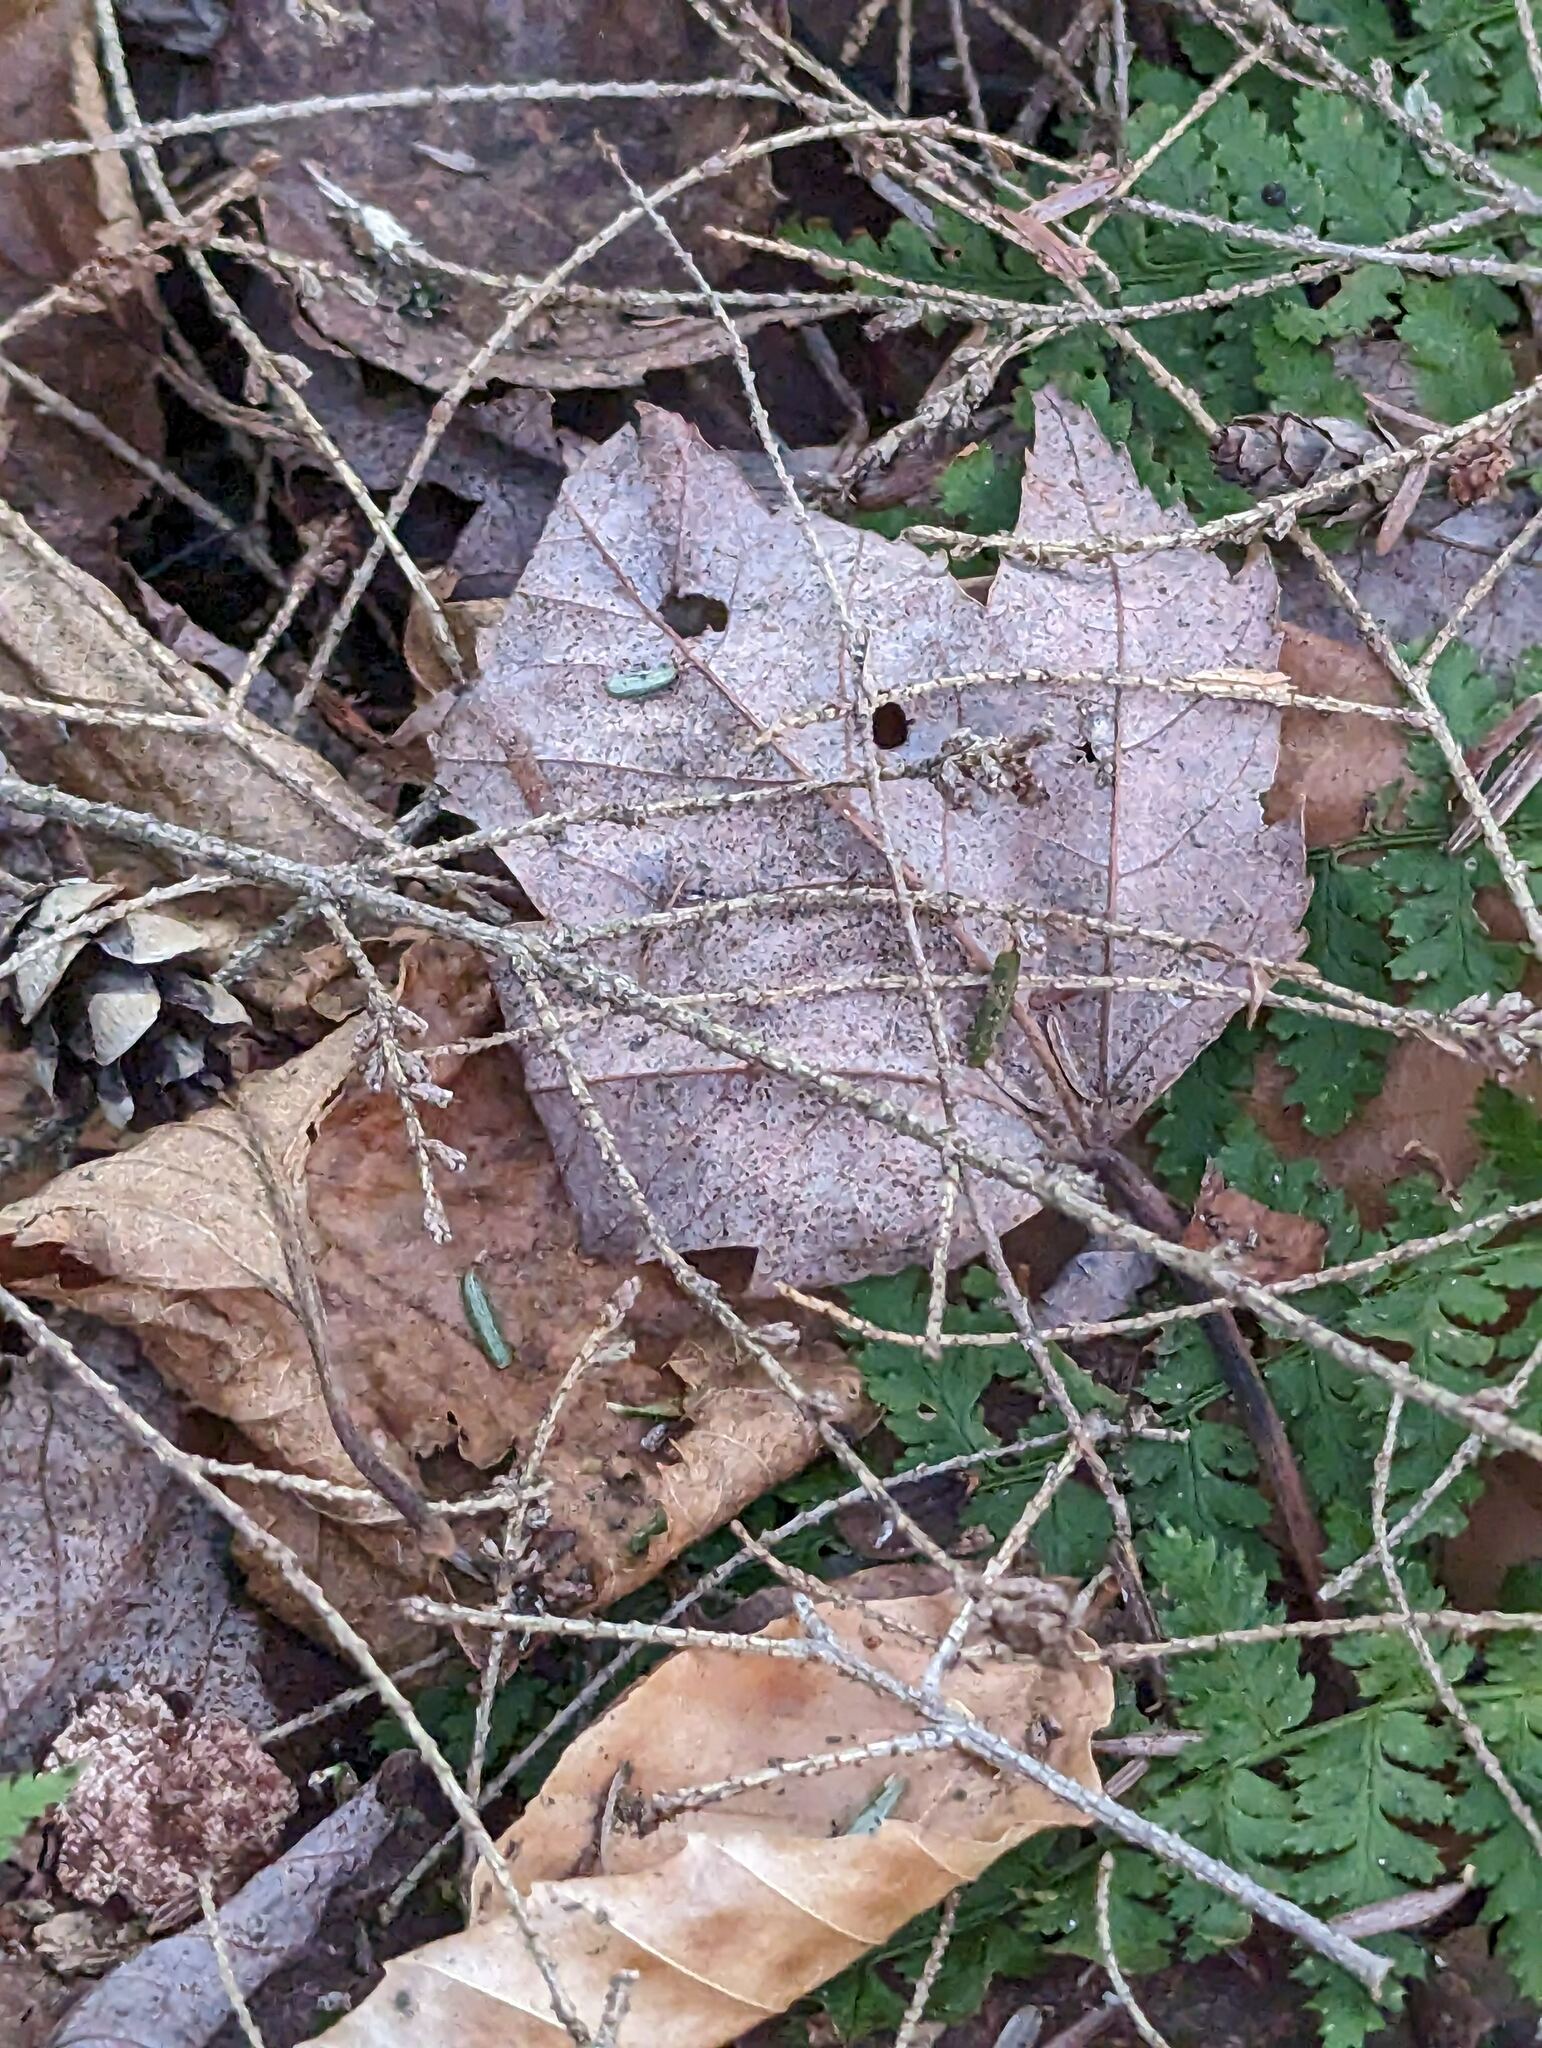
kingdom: Plantae
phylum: Tracheophyta
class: Magnoliopsida
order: Sapindales
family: Sapindaceae
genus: Acer
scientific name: Acer rubrum
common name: Red maple
